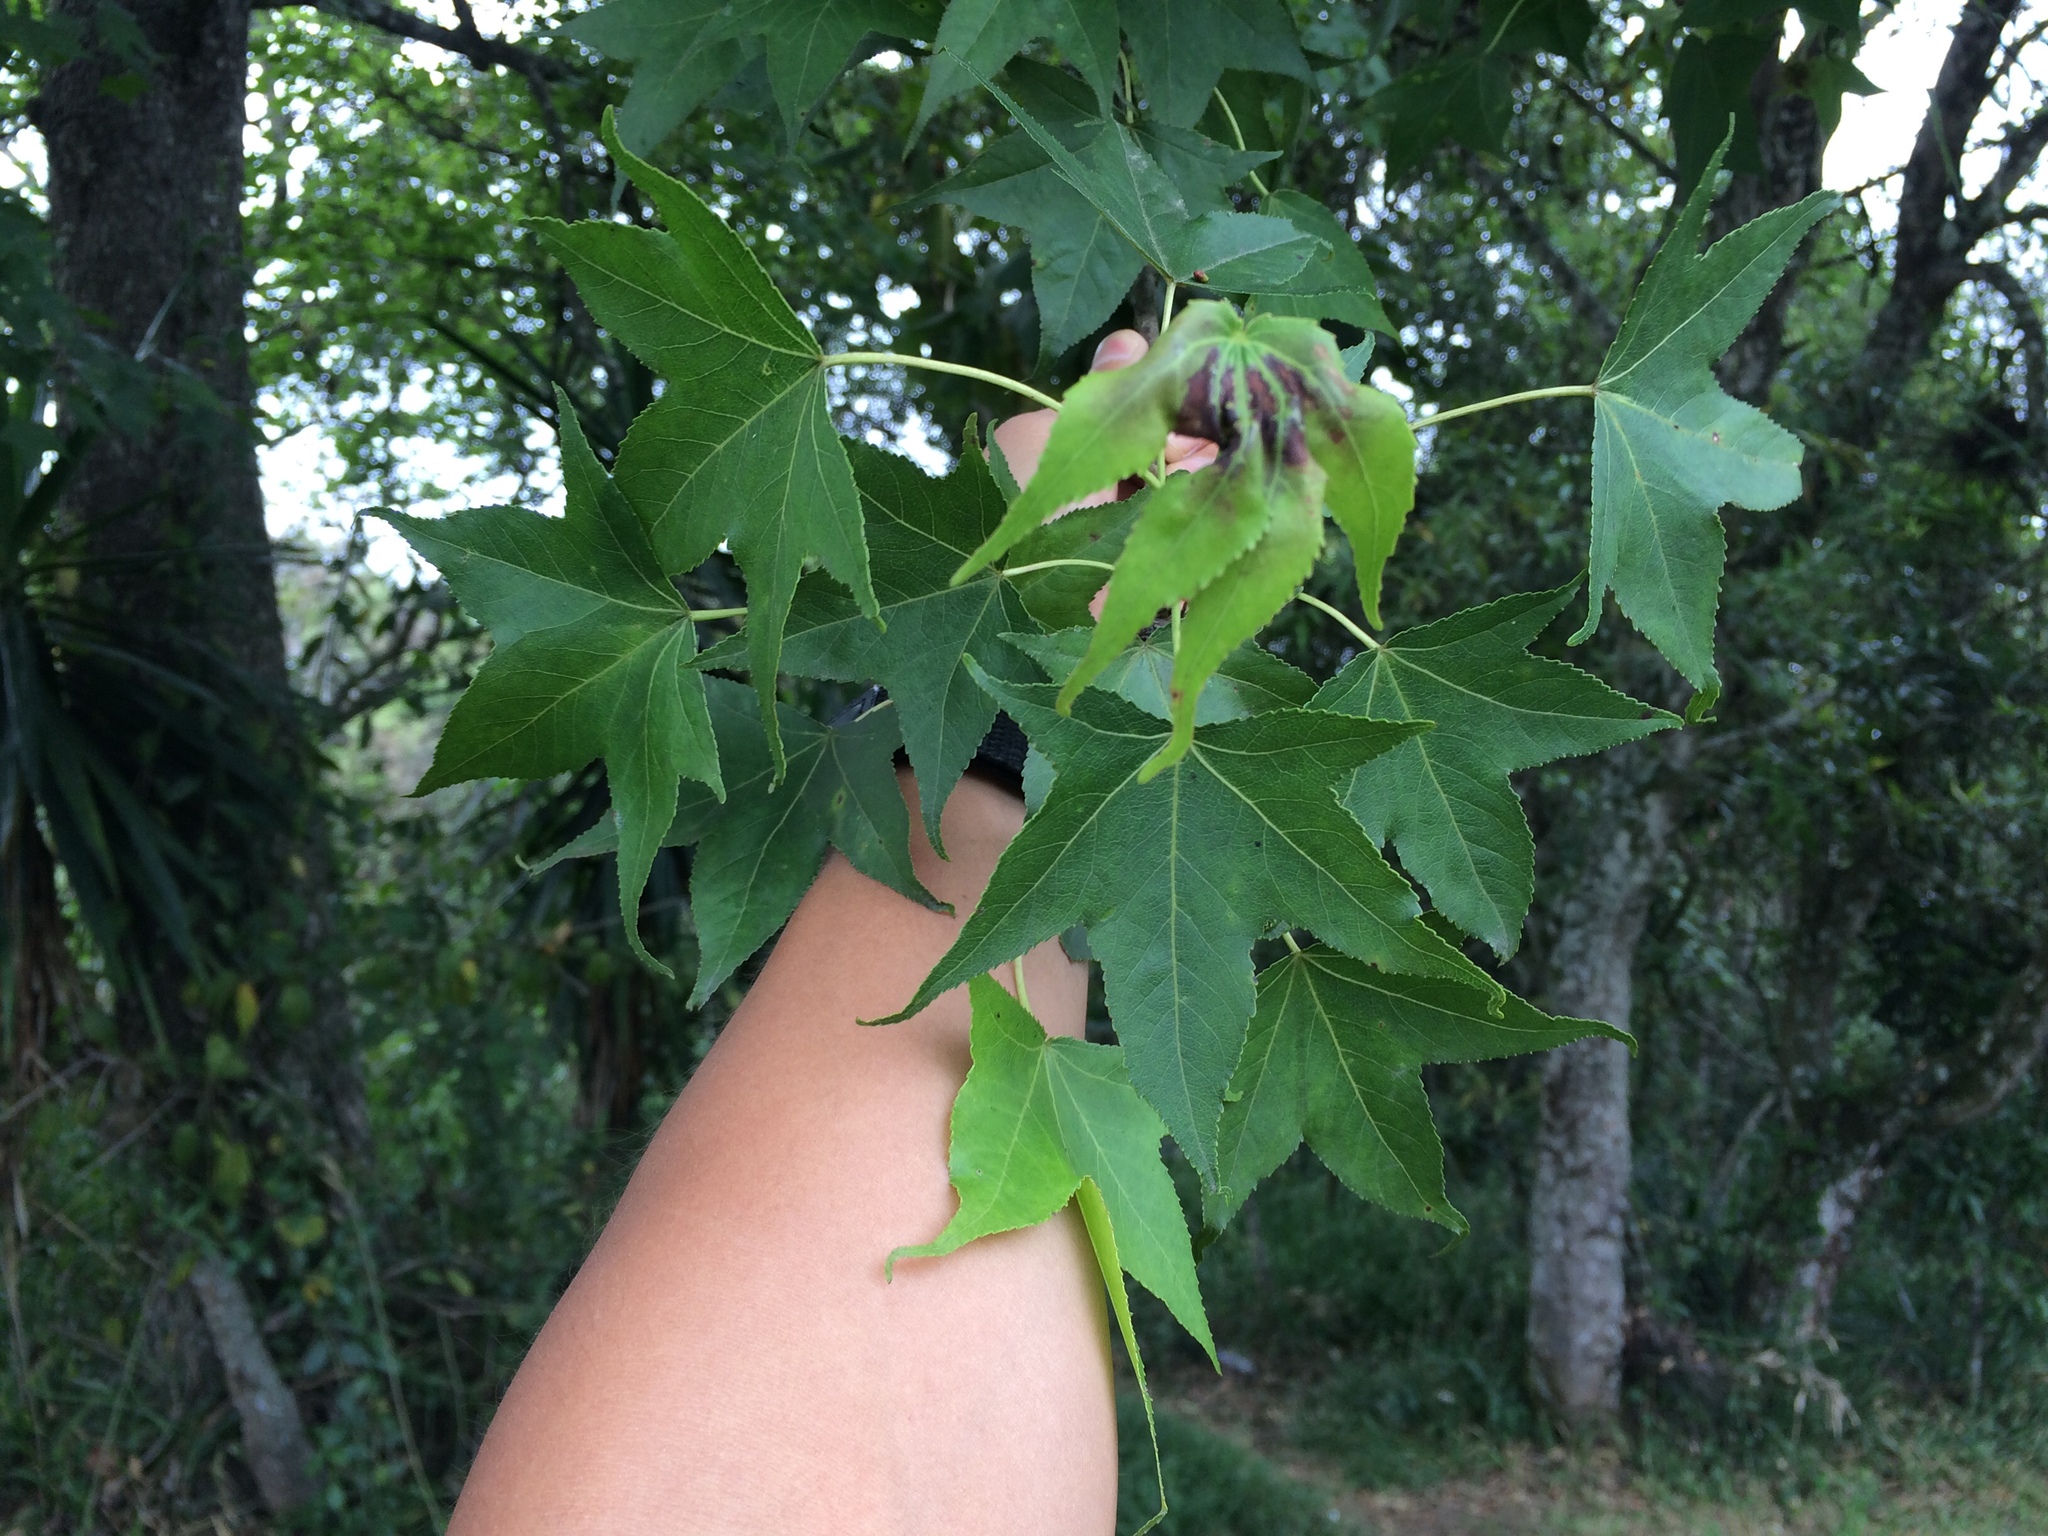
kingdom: Plantae
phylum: Tracheophyta
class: Magnoliopsida
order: Saxifragales
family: Altingiaceae
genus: Liquidambar
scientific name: Liquidambar styraciflua
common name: Sweet gum
